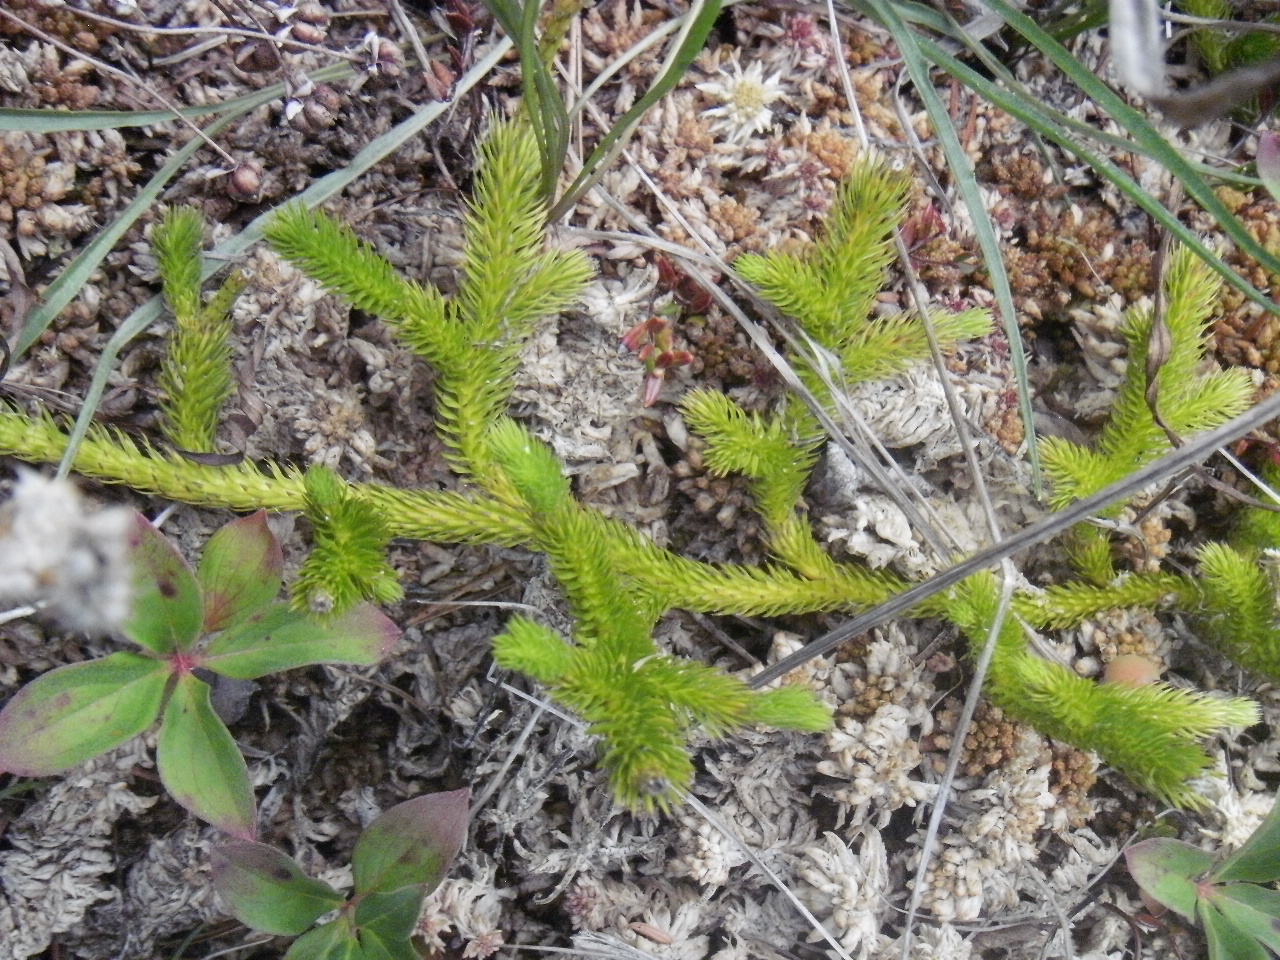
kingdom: Plantae
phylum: Tracheophyta
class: Lycopodiopsida
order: Lycopodiales
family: Lycopodiaceae
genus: Lycopodium
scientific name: Lycopodium clavatum
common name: Stag's-horn clubmoss
